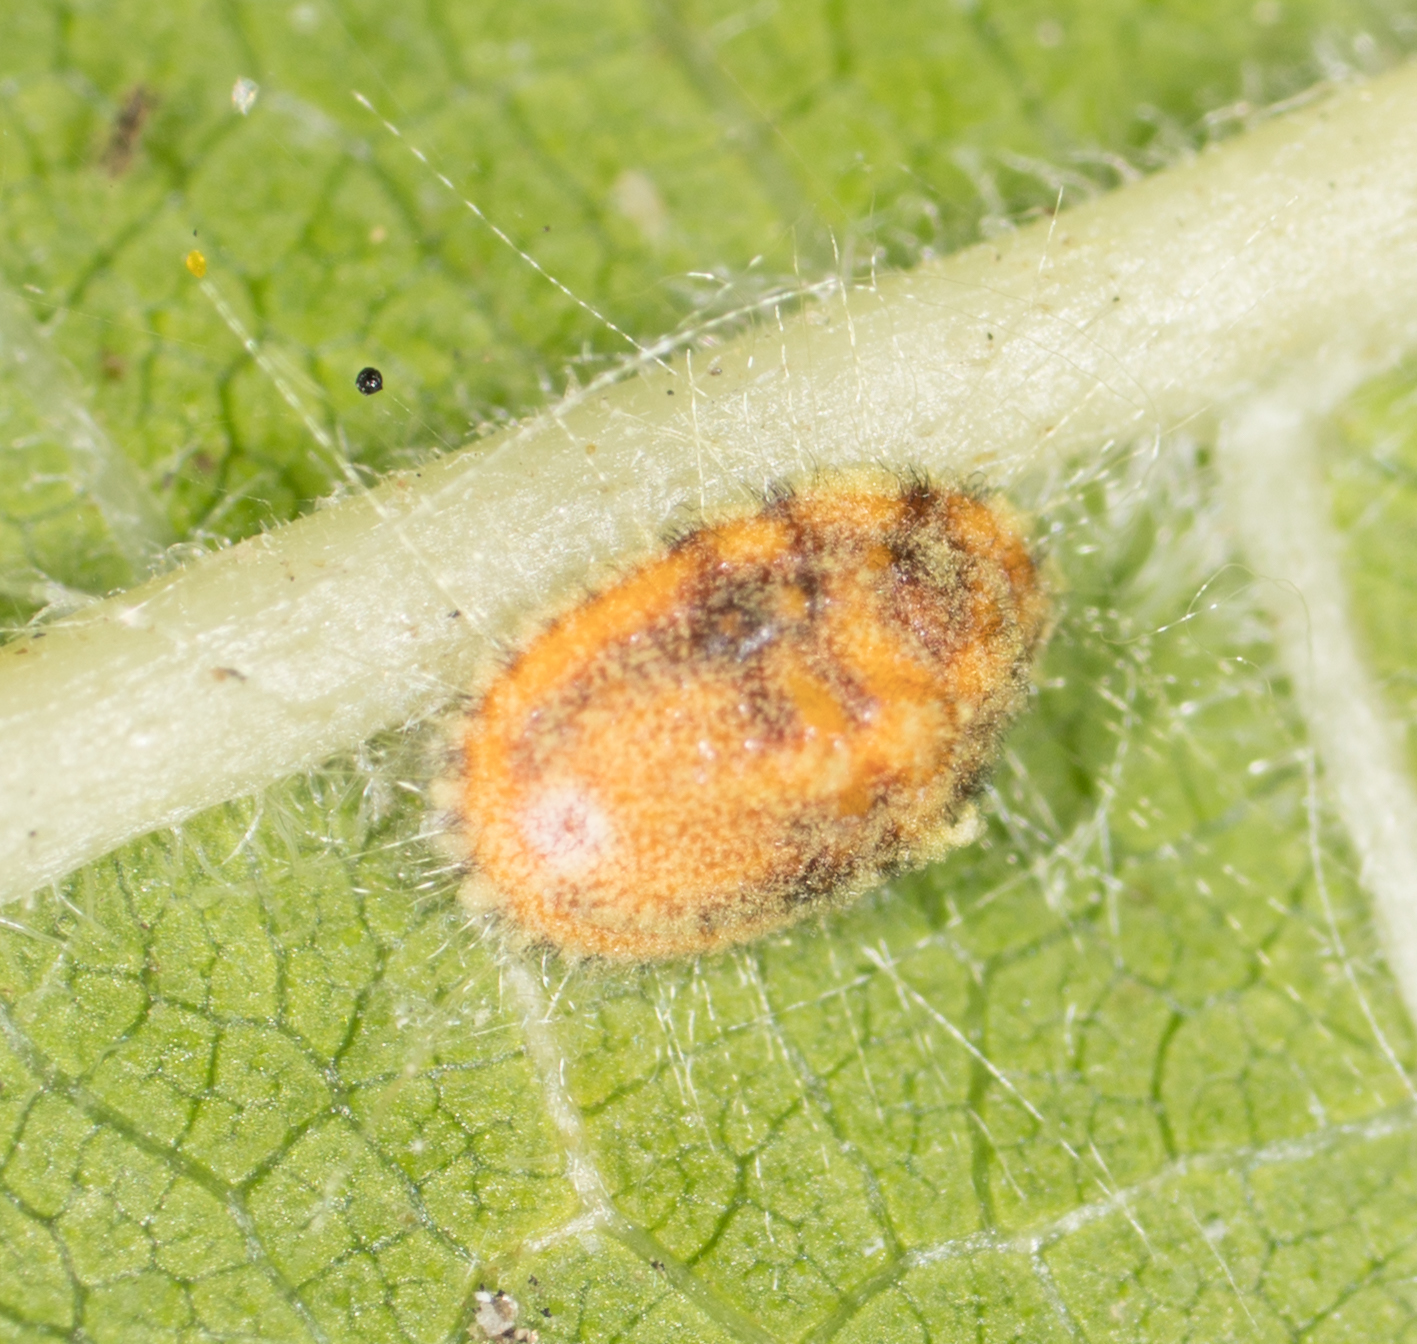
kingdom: Animalia
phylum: Arthropoda
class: Insecta
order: Hemiptera
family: Margarodidae
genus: Icerya
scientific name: Icerya purchasi
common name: Cottony cushion scale
